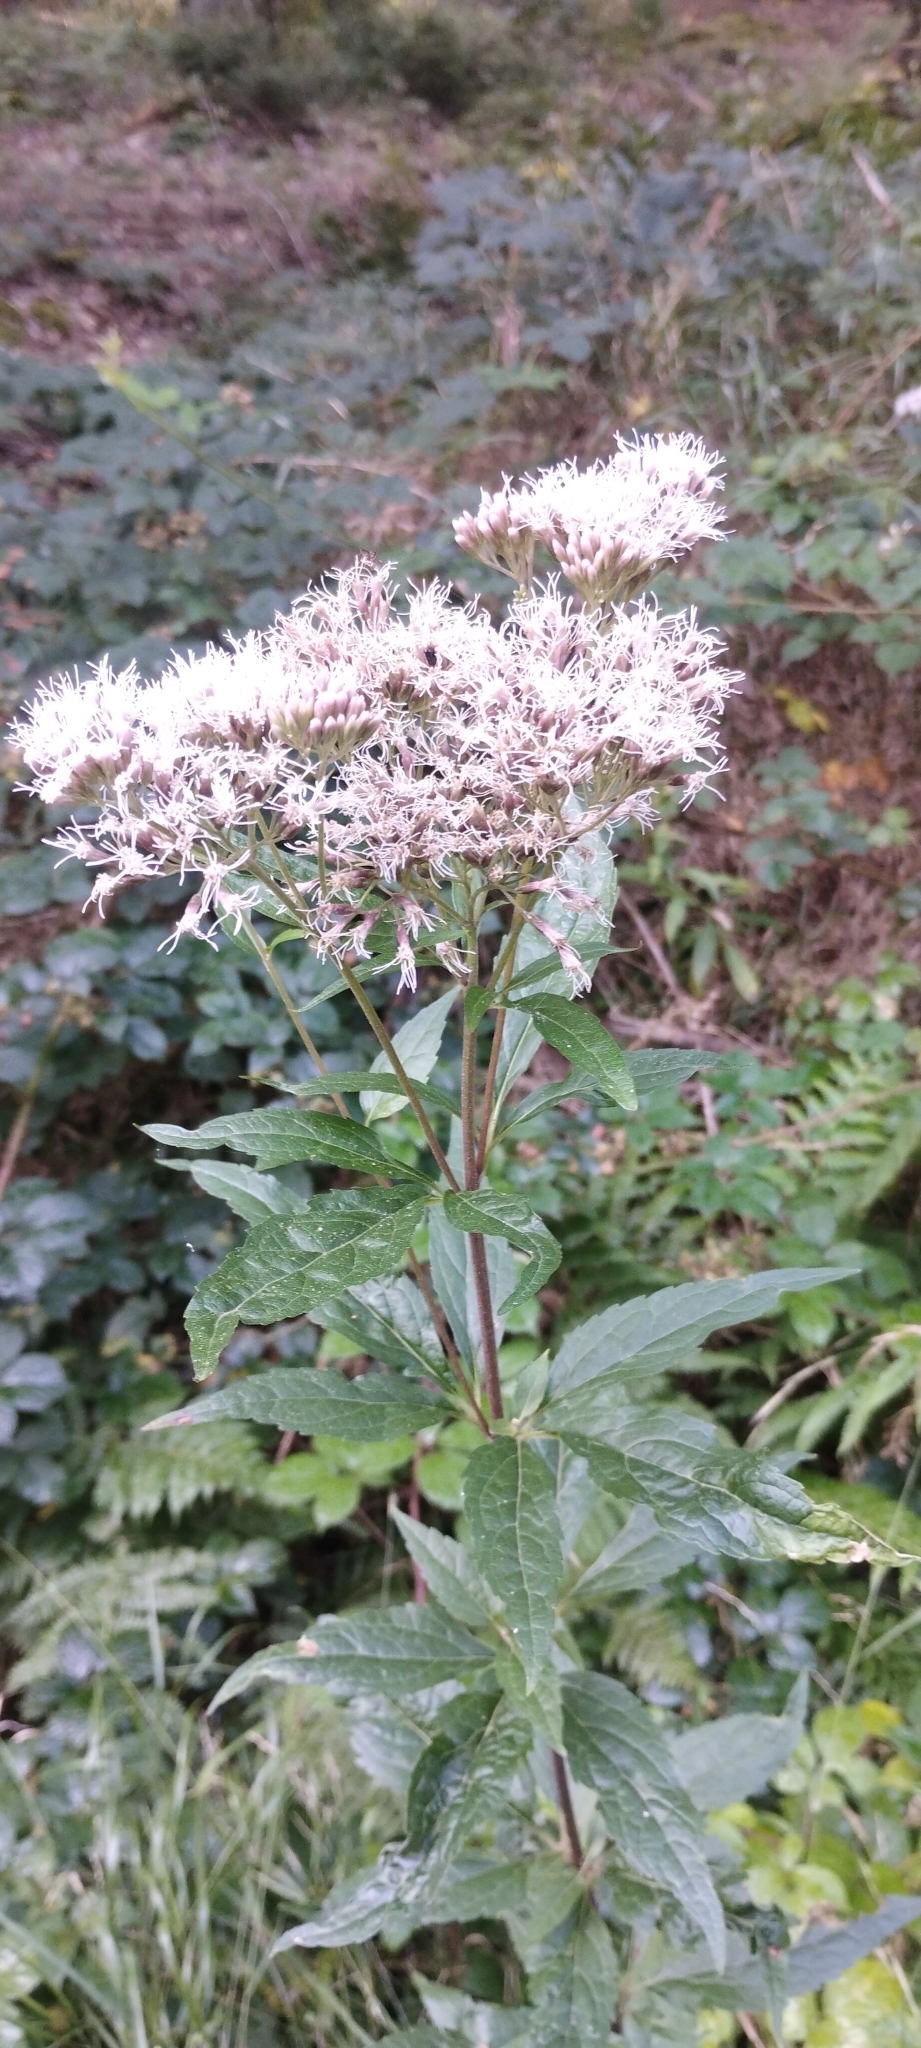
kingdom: Plantae
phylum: Tracheophyta
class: Magnoliopsida
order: Asterales
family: Asteraceae
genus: Eupatorium
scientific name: Eupatorium cannabinum
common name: Hemp-agrimony
